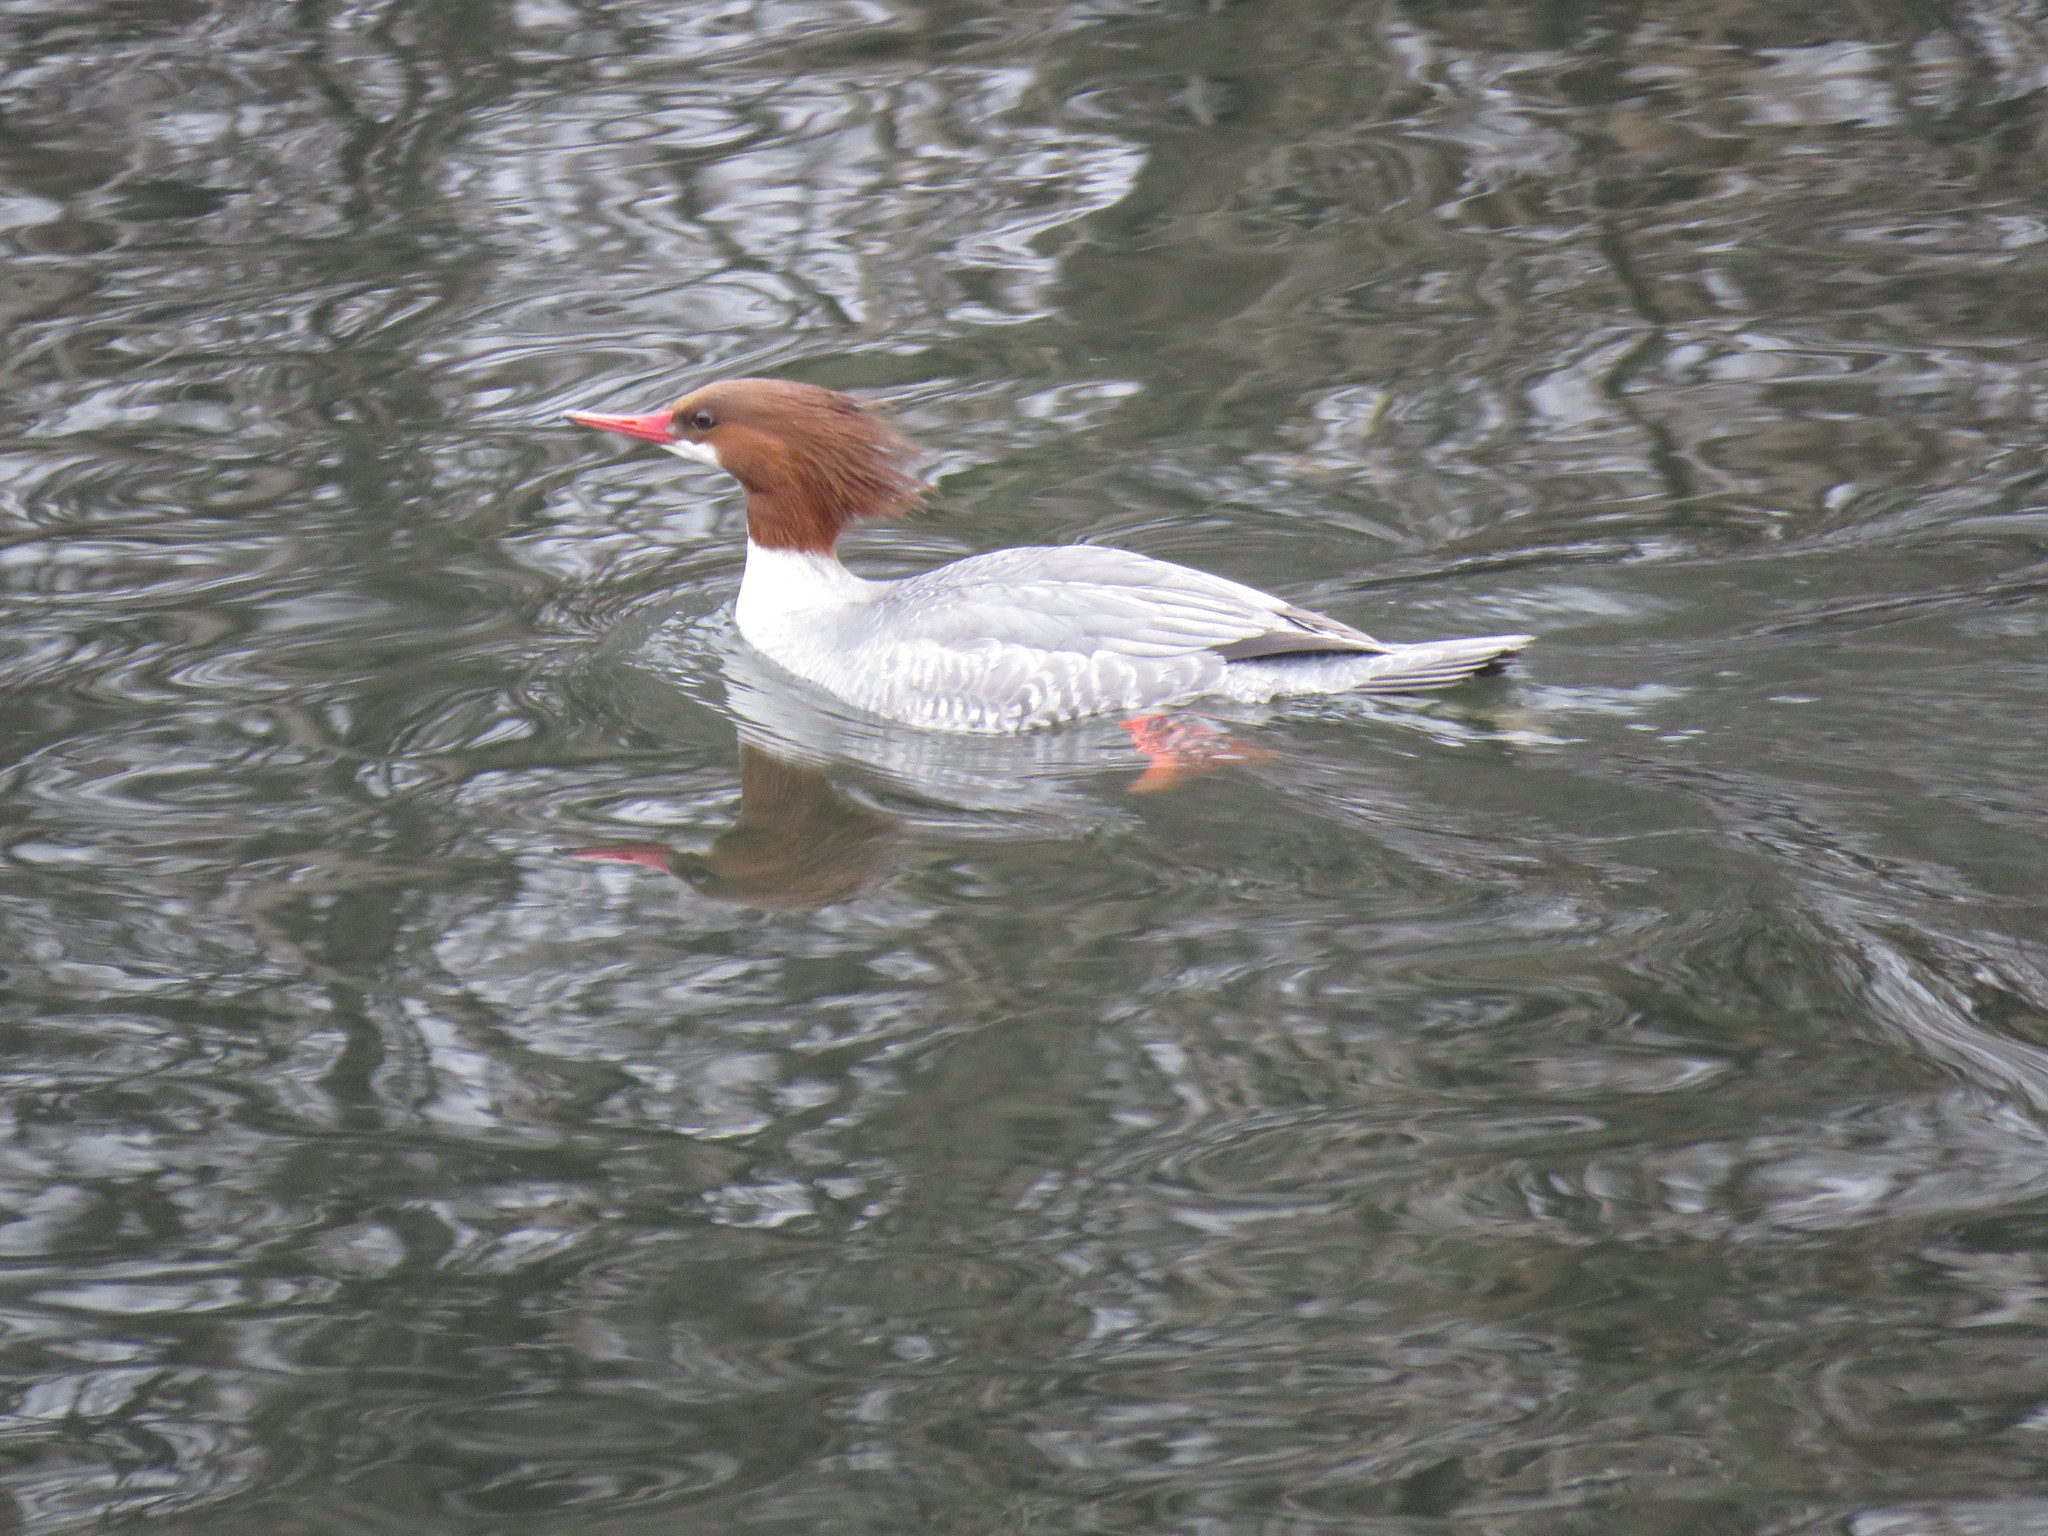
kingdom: Animalia
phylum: Chordata
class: Aves
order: Anseriformes
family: Anatidae
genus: Mergus
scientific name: Mergus merganser
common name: Common merganser
